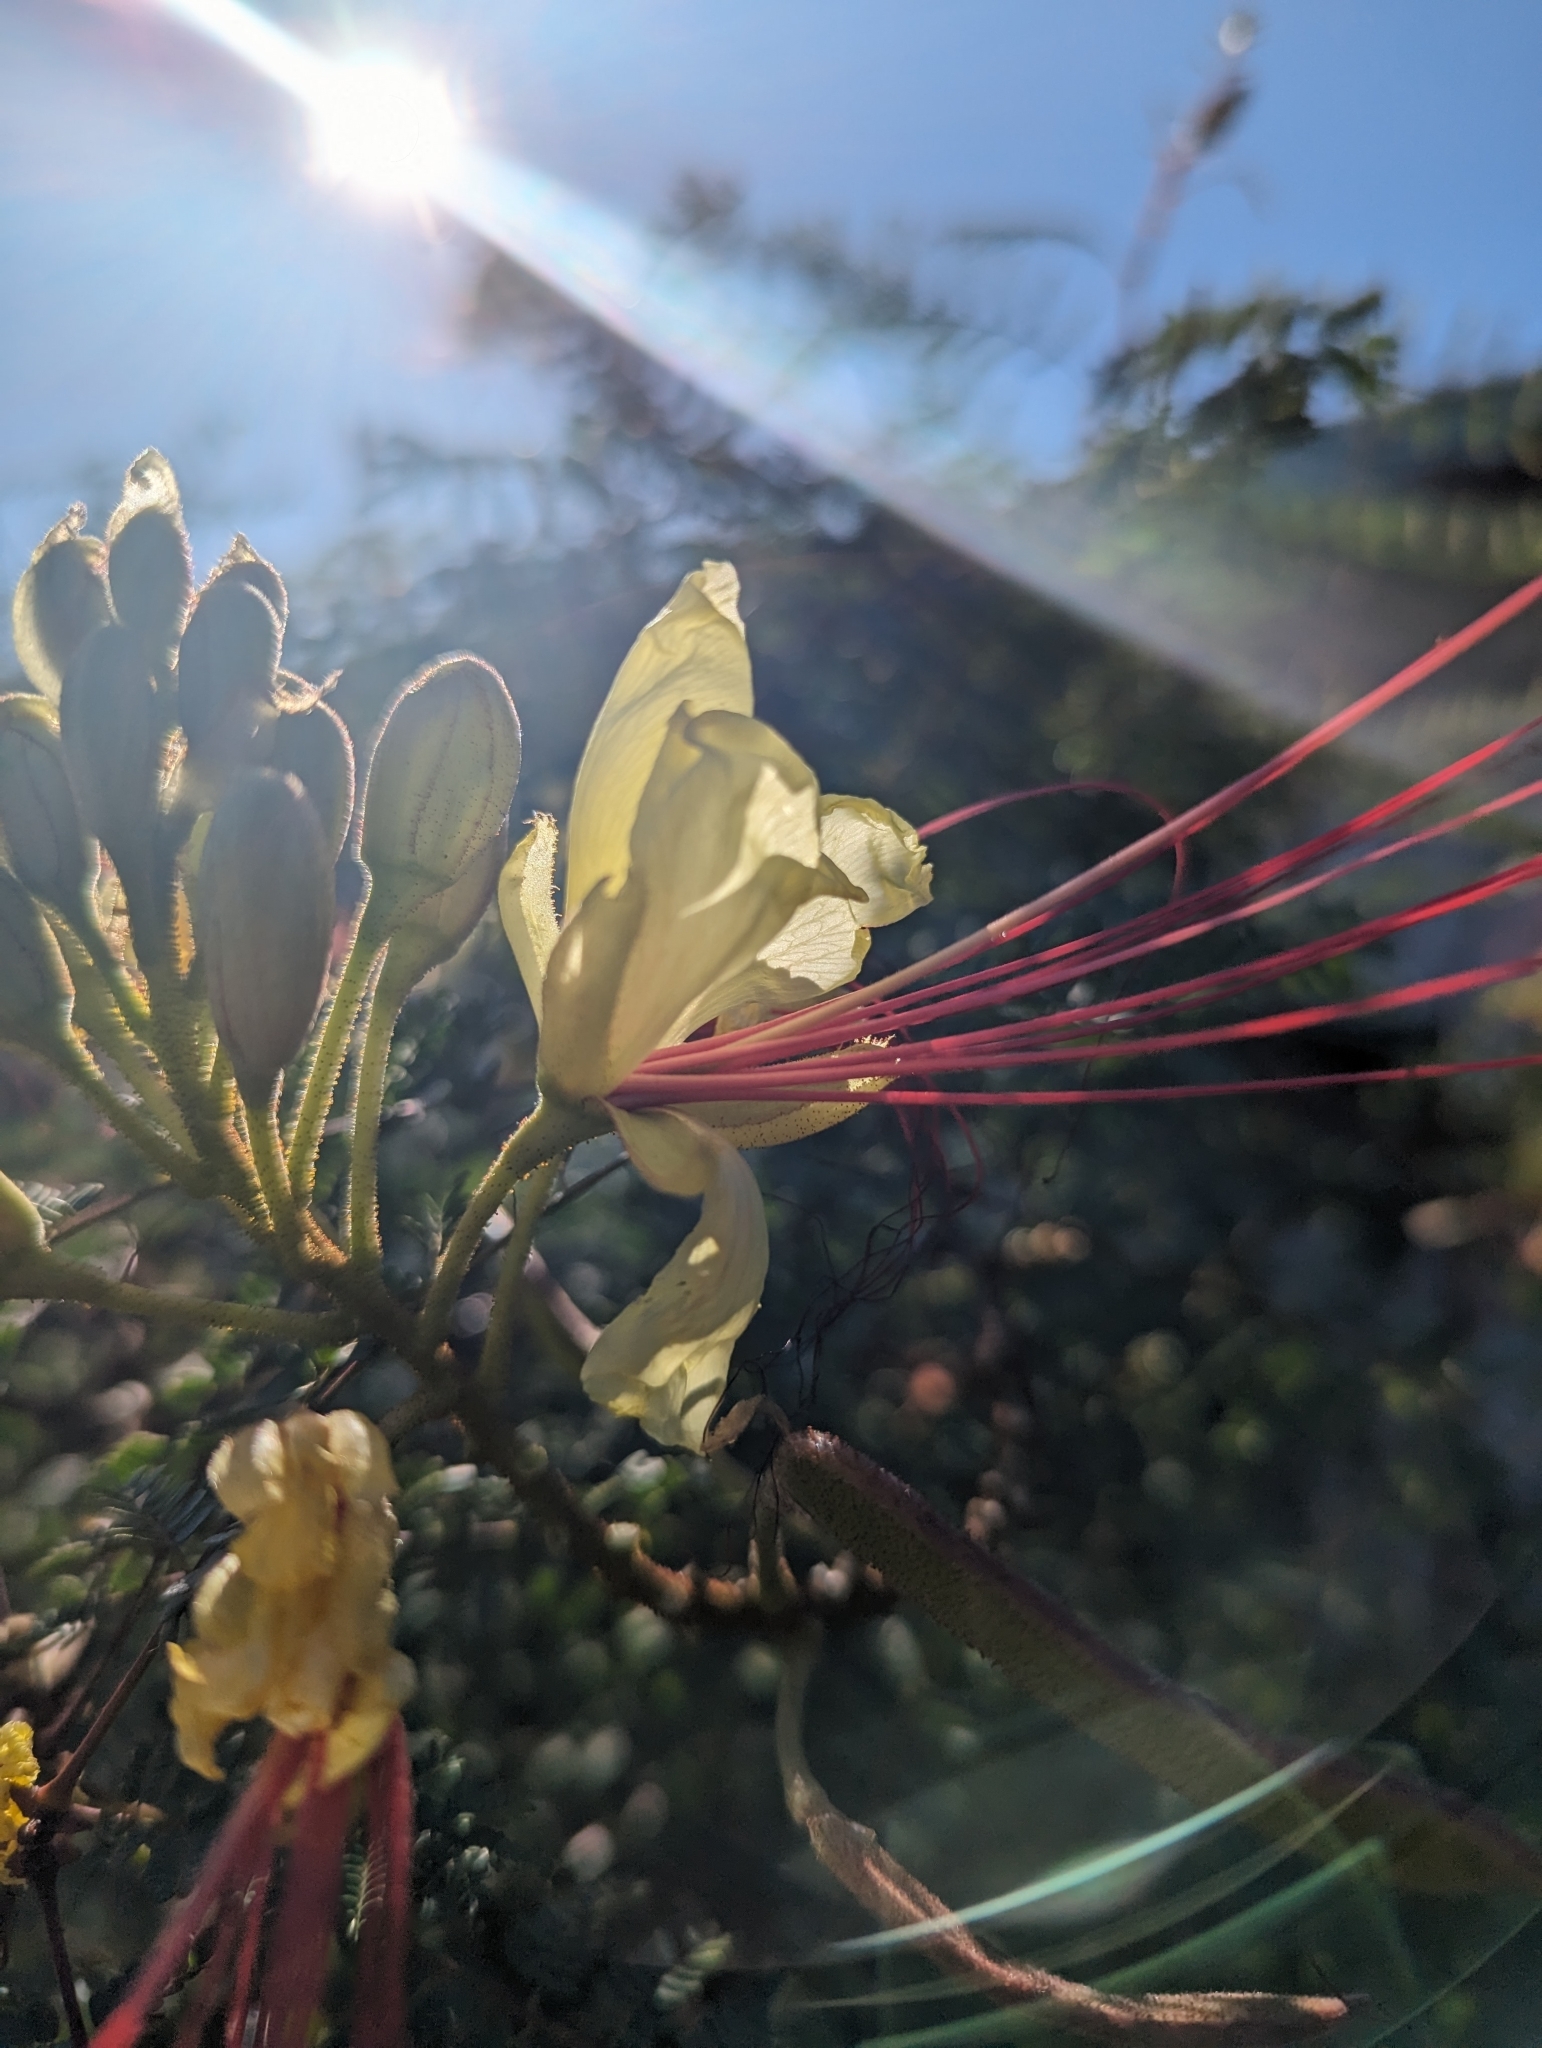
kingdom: Plantae
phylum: Tracheophyta
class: Magnoliopsida
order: Fabales
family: Fabaceae
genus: Erythrostemon
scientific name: Erythrostemon gilliesii
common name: Bird-of-paradise shrub
